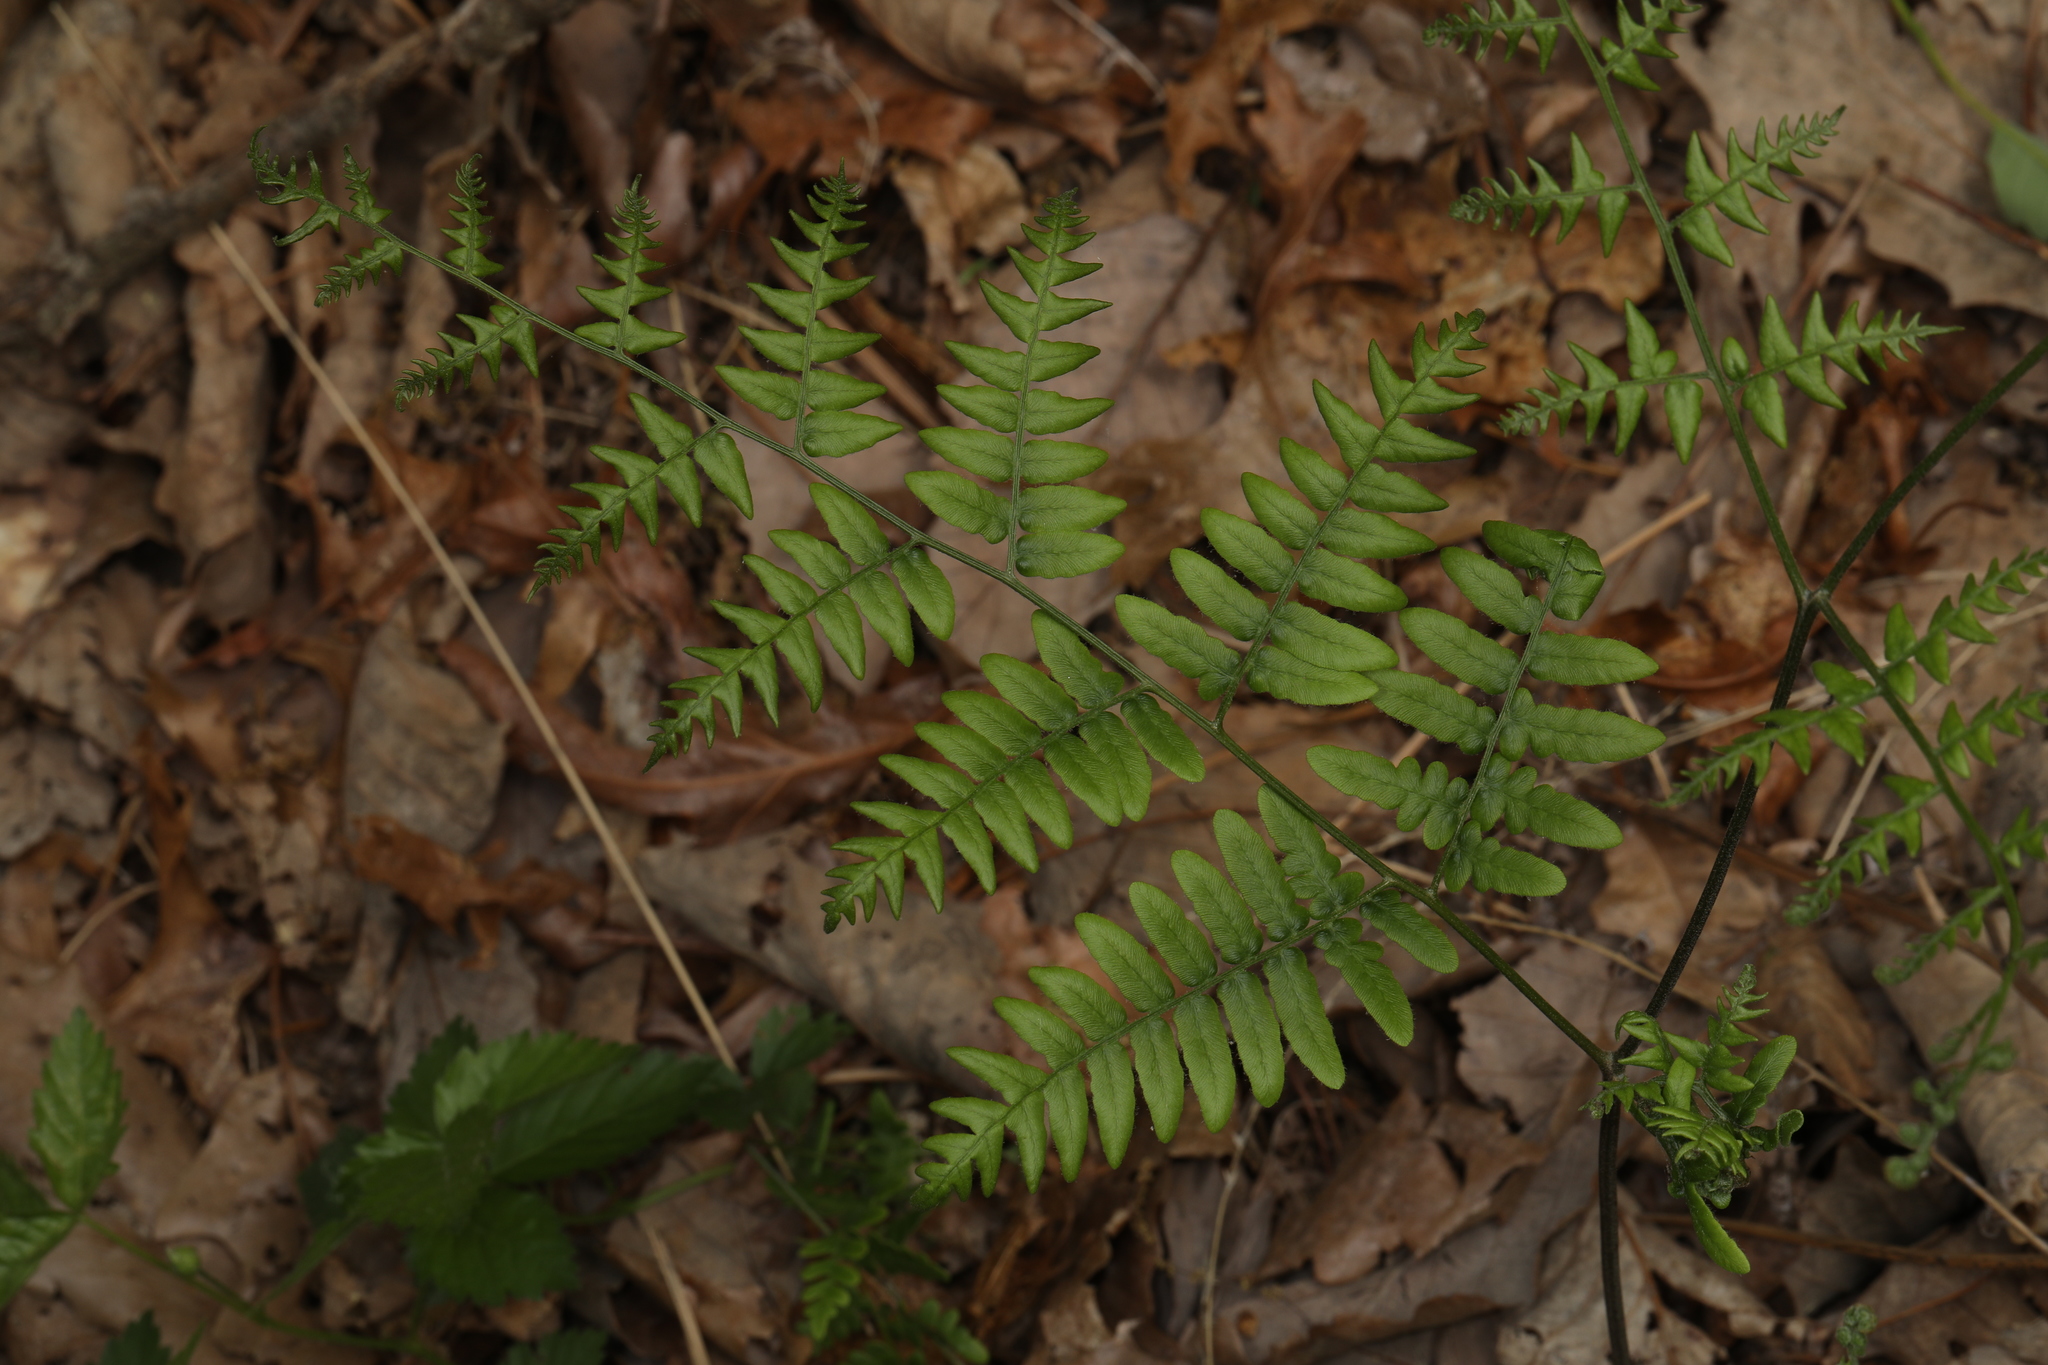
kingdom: Plantae
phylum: Tracheophyta
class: Polypodiopsida
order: Polypodiales
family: Dennstaedtiaceae
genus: Pteridium
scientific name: Pteridium aquilinum
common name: Bracken
